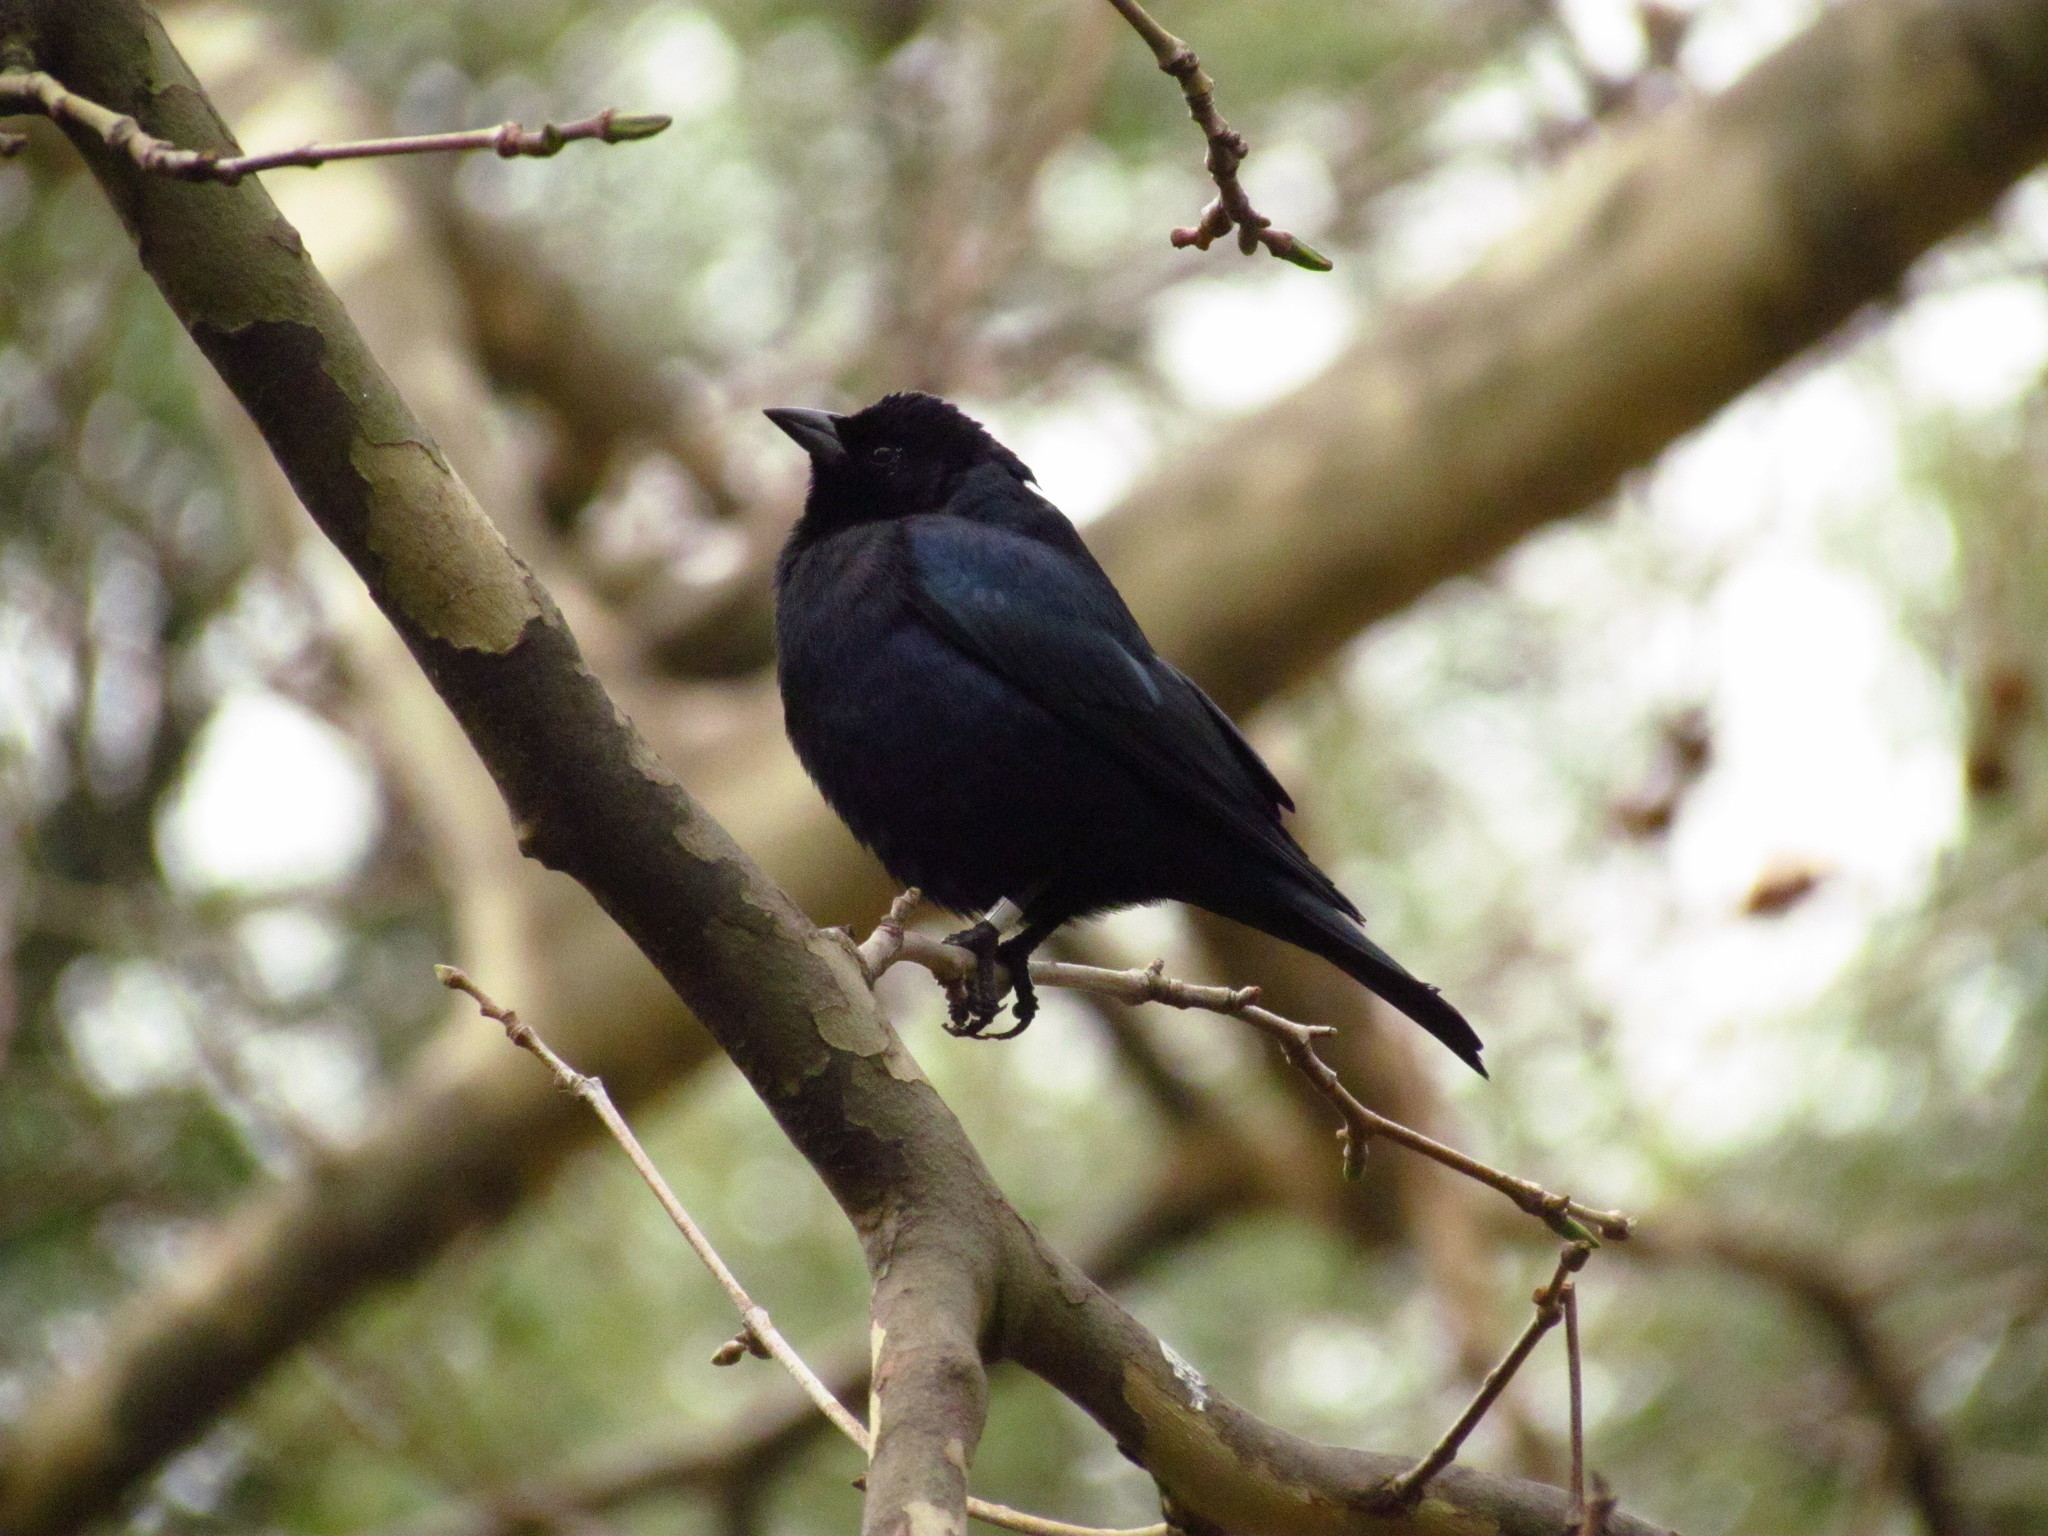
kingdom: Animalia
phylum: Chordata
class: Aves
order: Passeriformes
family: Icteridae
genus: Molothrus
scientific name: Molothrus bonariensis
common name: Shiny cowbird
